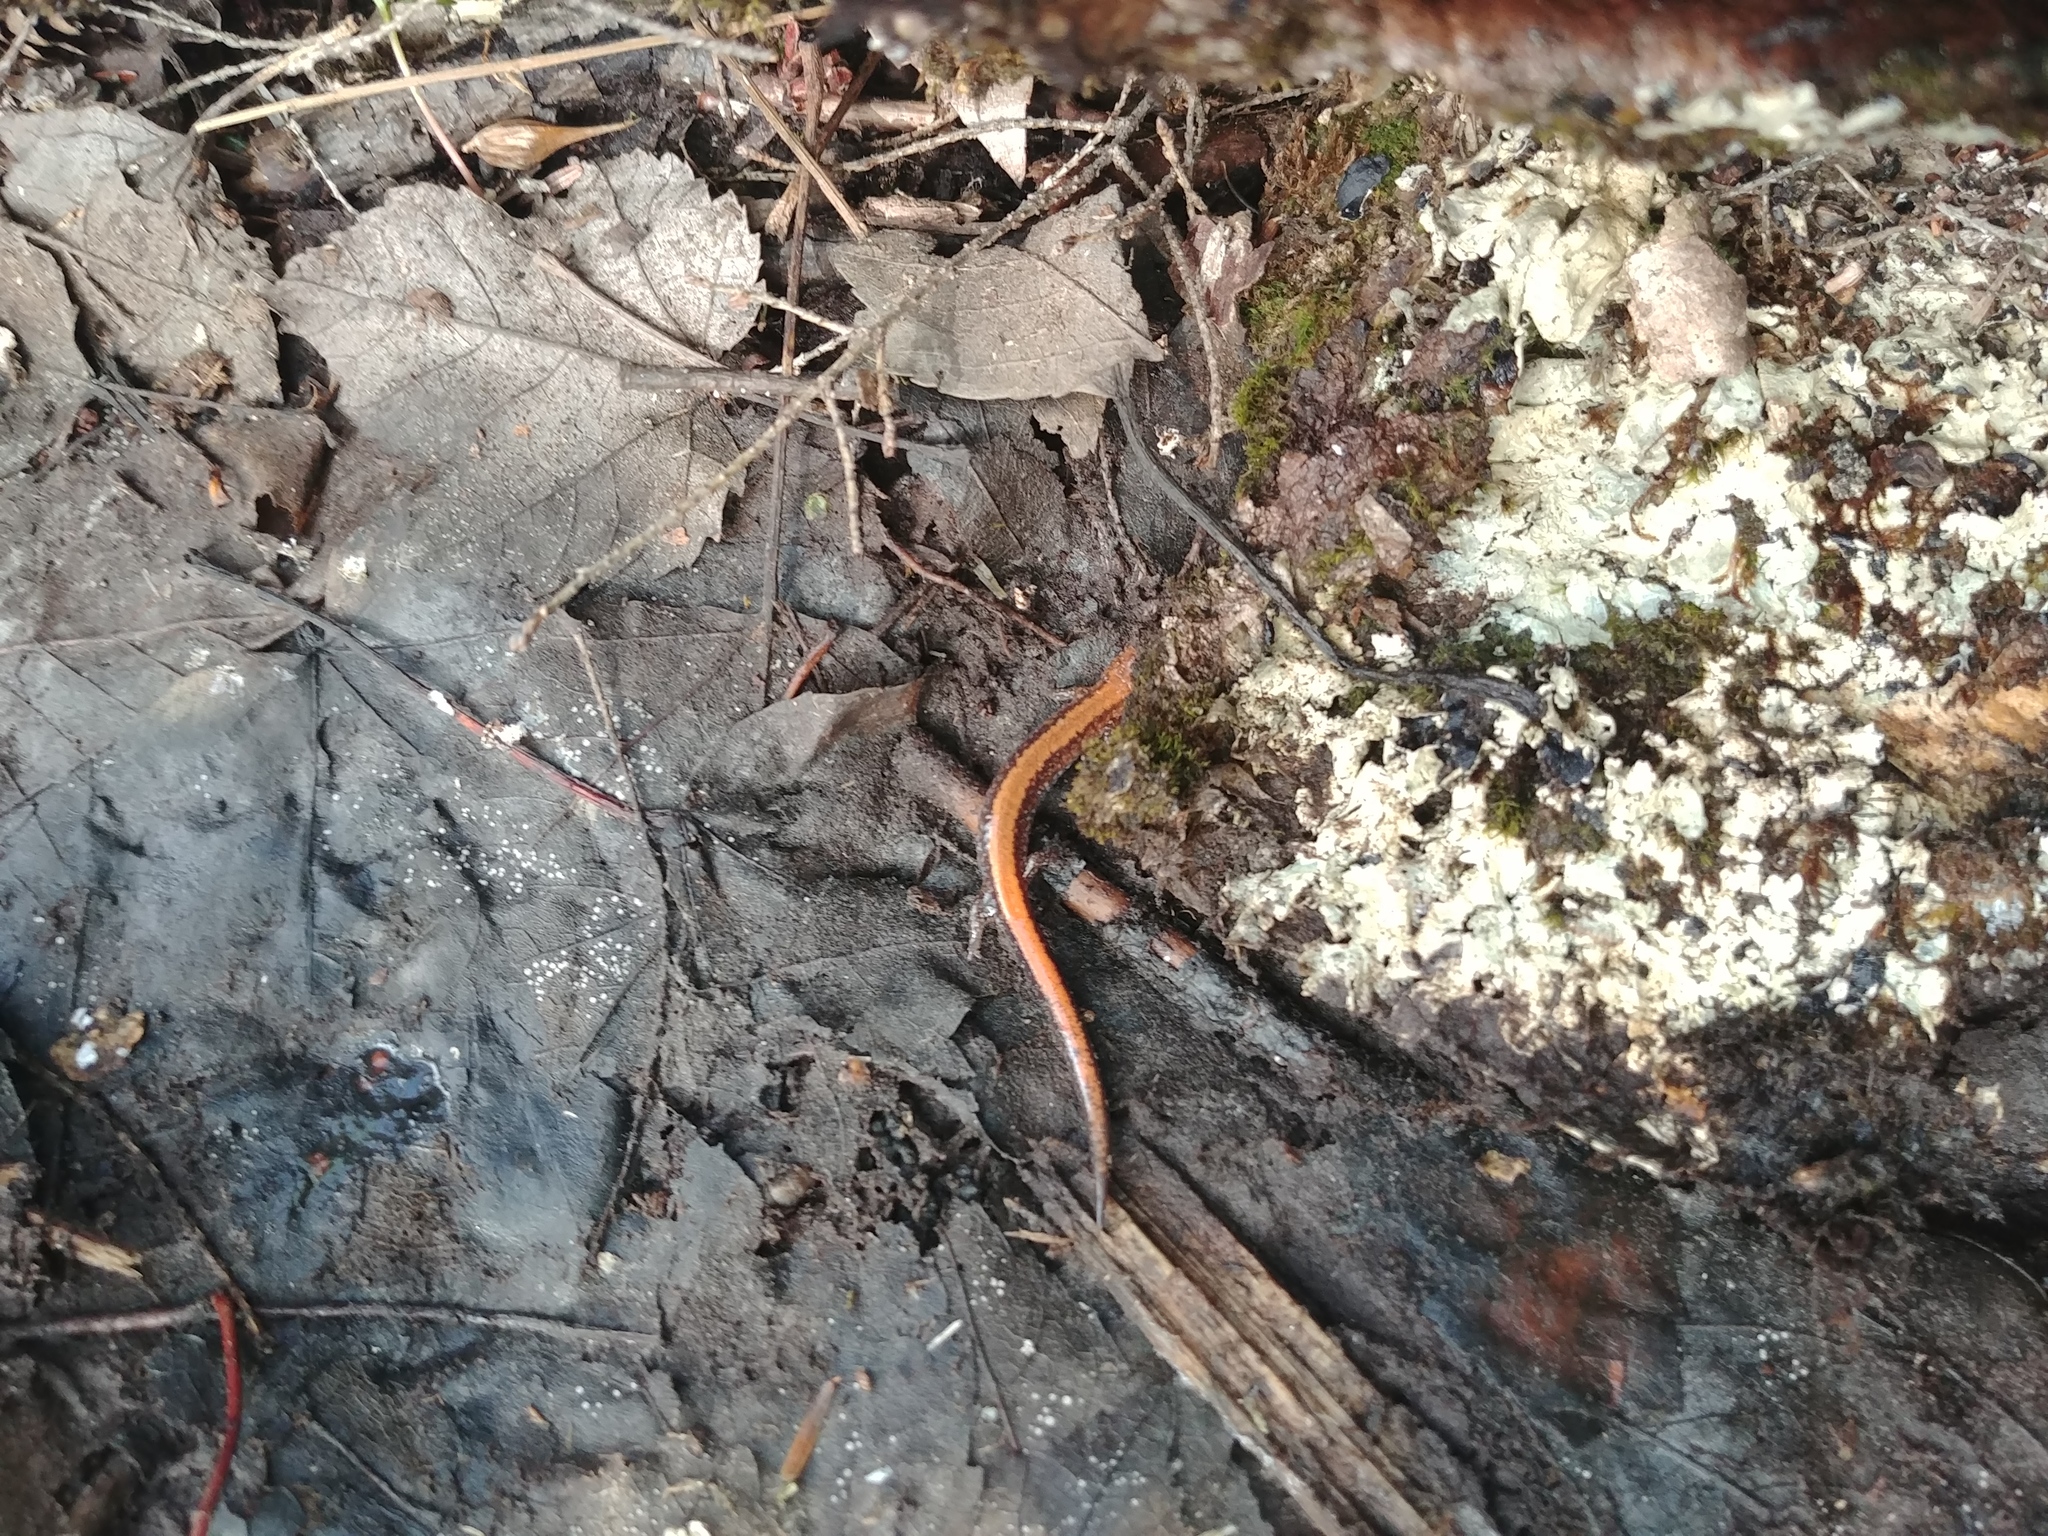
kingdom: Animalia
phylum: Chordata
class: Amphibia
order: Caudata
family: Plethodontidae
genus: Plethodon
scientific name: Plethodon cinereus
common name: Redback salamander
